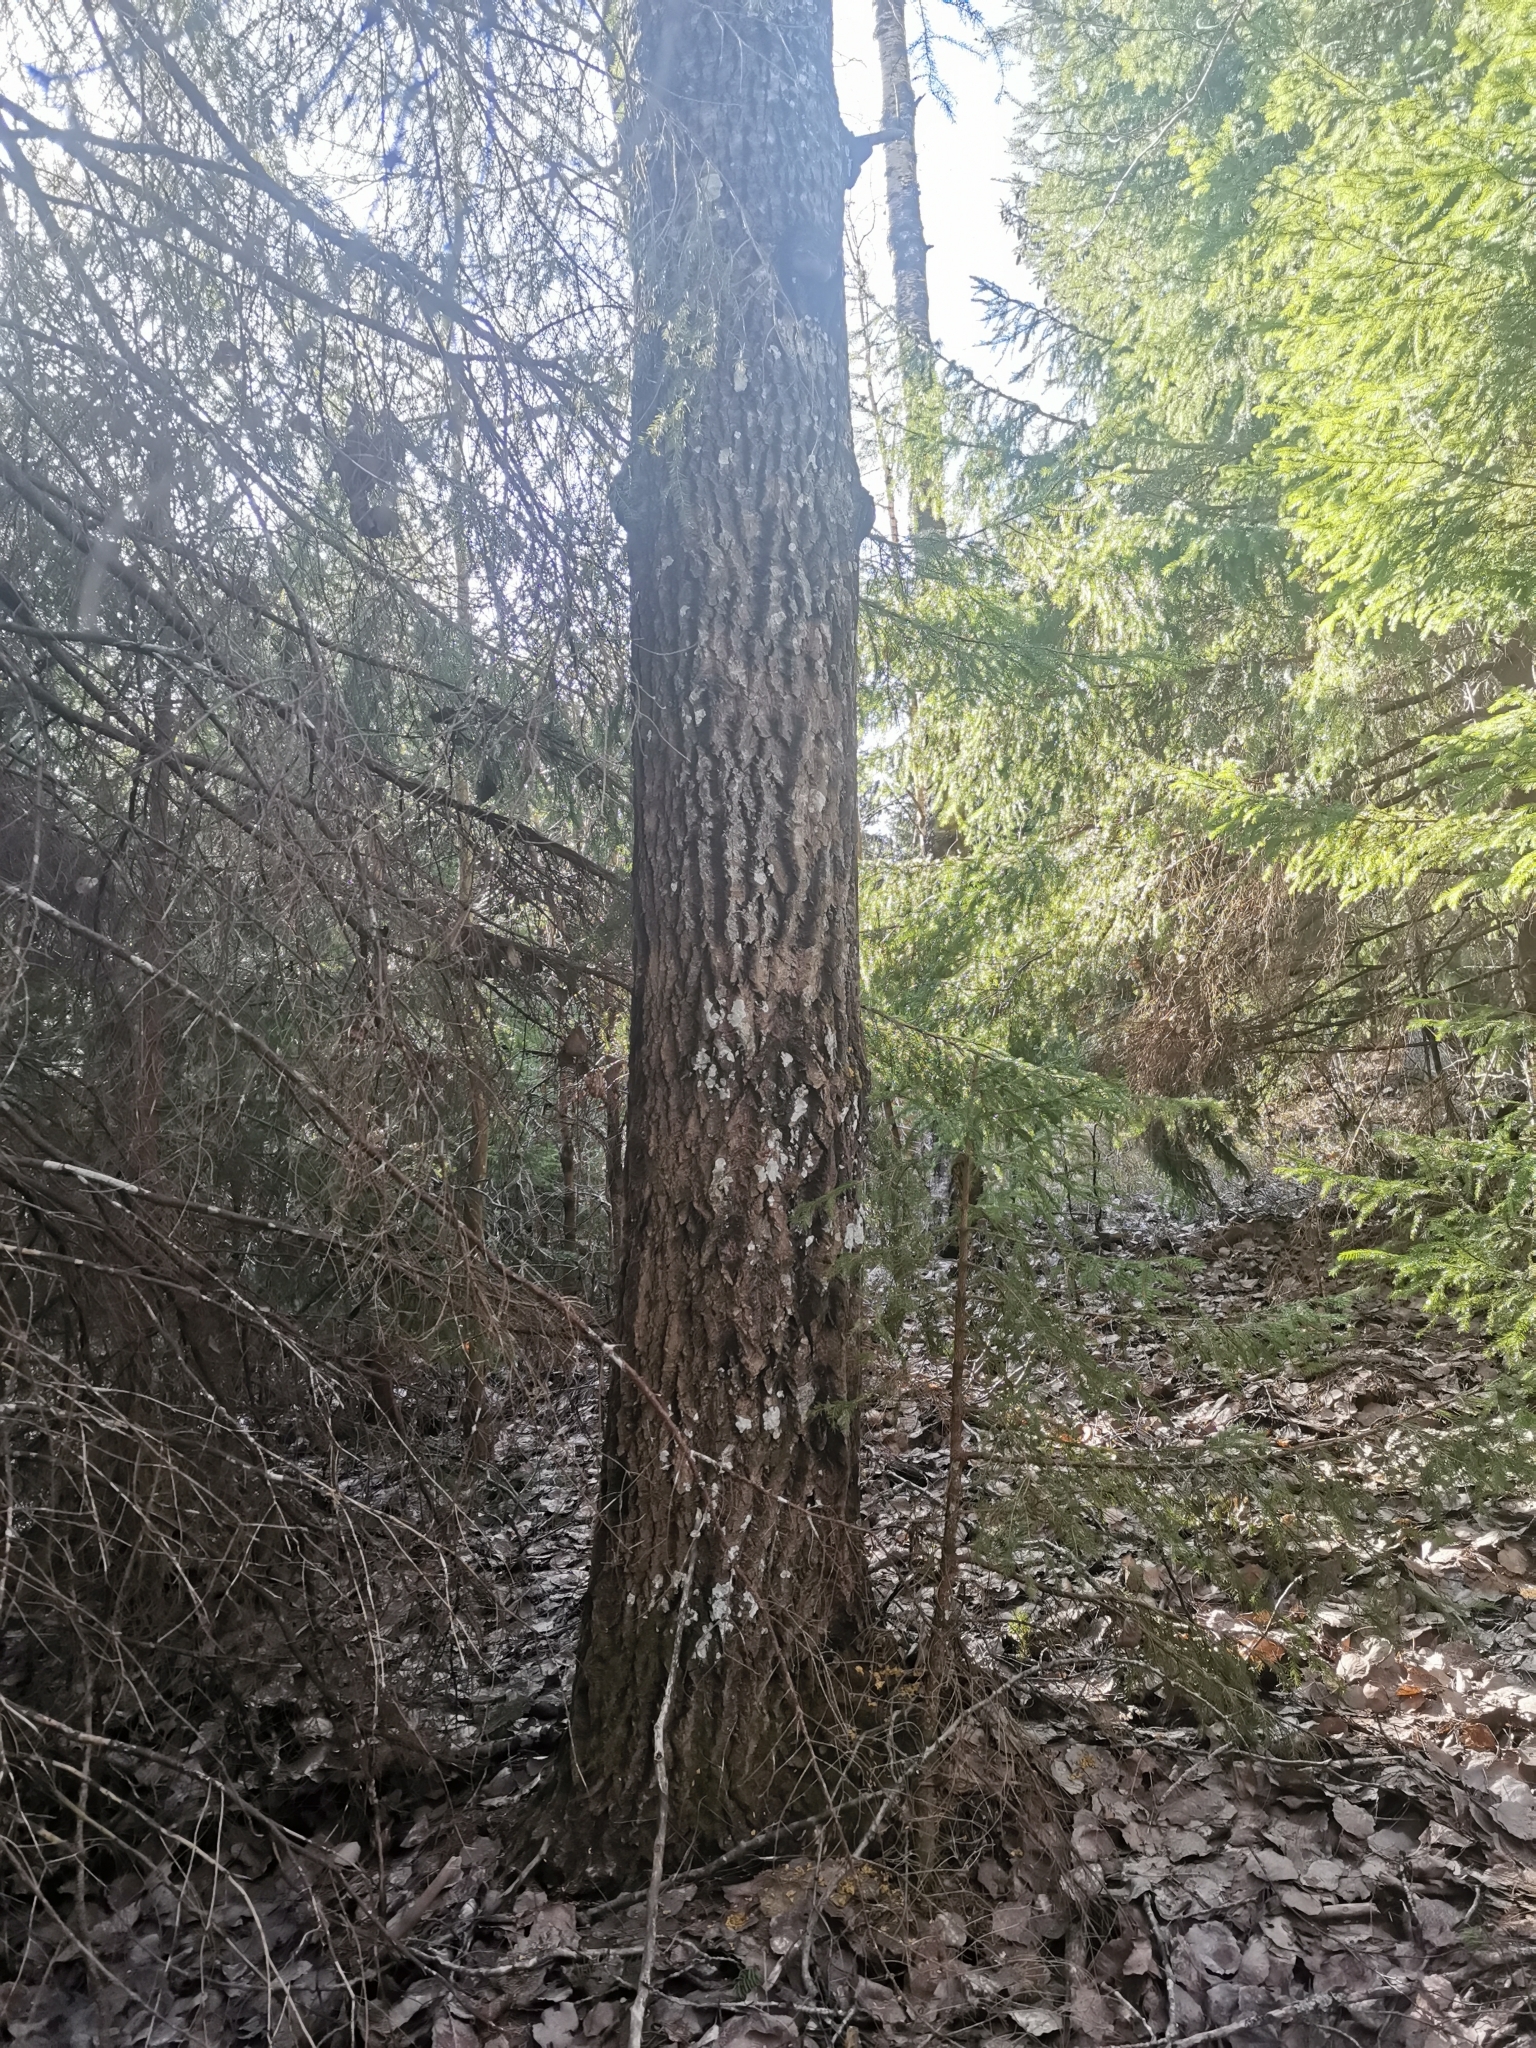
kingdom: Animalia
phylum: Chordata
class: Mammalia
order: Rodentia
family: Sciuridae
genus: Pteromys
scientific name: Pteromys volans
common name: Siberian flying squirrel
